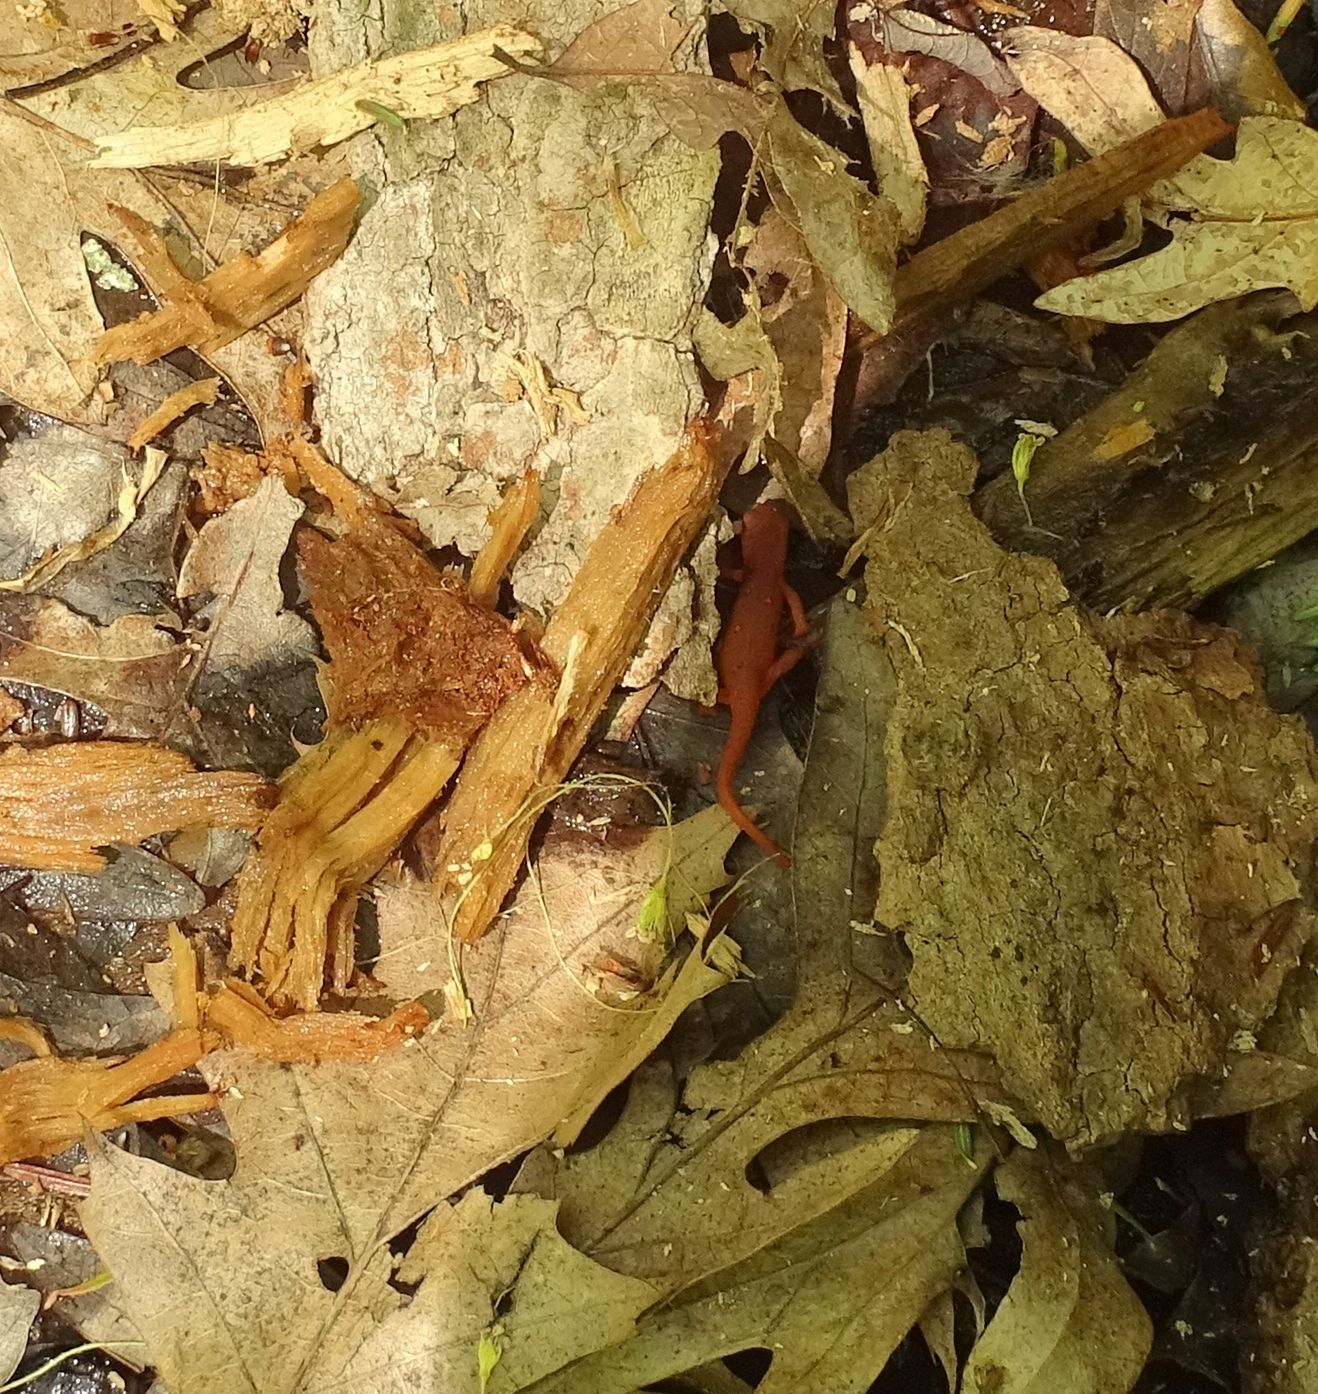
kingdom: Animalia
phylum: Chordata
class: Amphibia
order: Caudata
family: Salamandridae
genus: Notophthalmus
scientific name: Notophthalmus viridescens
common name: Eastern newt
